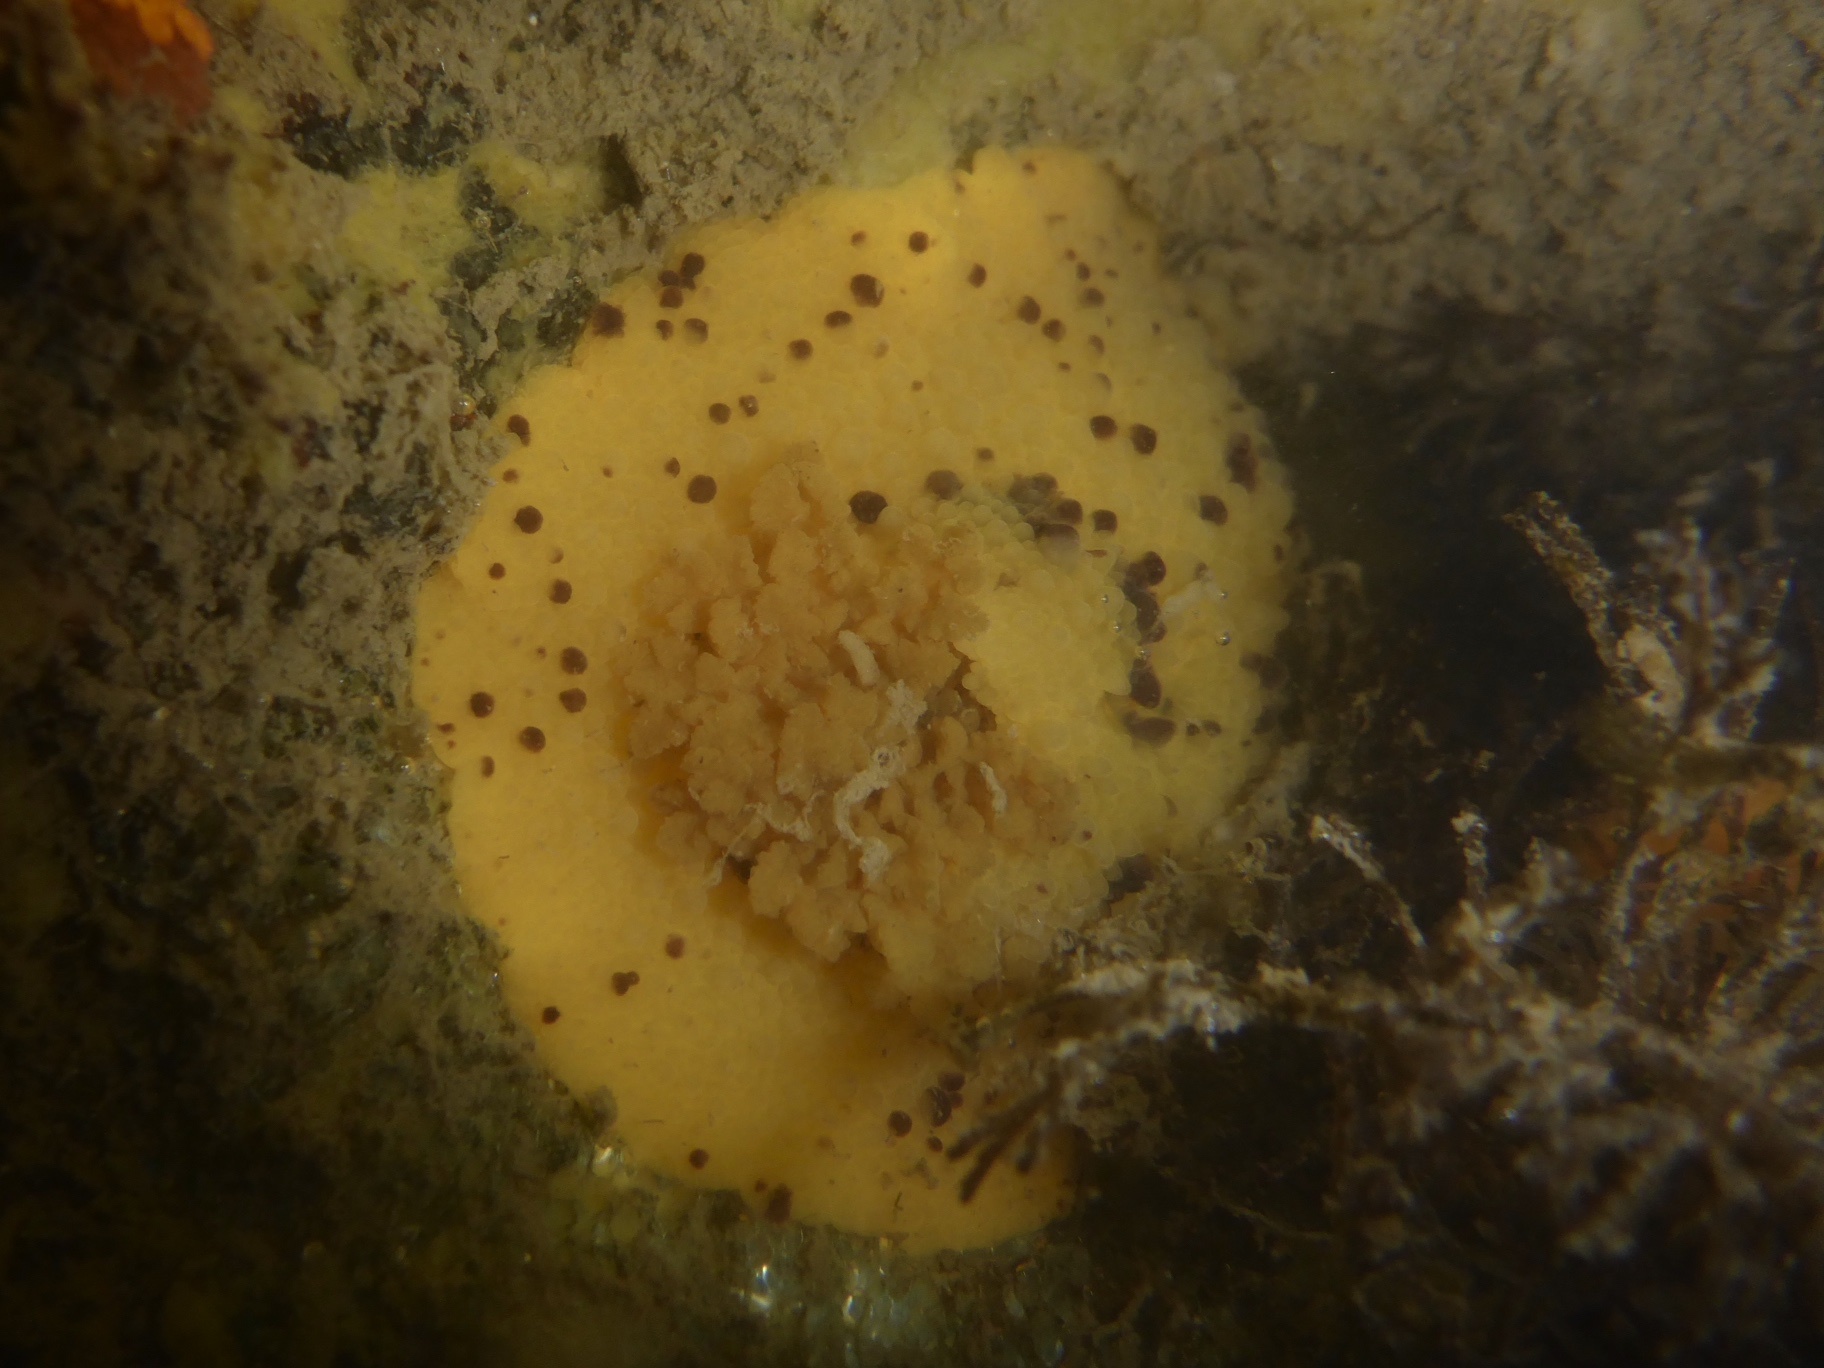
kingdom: Animalia
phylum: Mollusca
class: Gastropoda
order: Nudibranchia
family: Dorididae
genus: Doris
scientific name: Doris montereyensis
